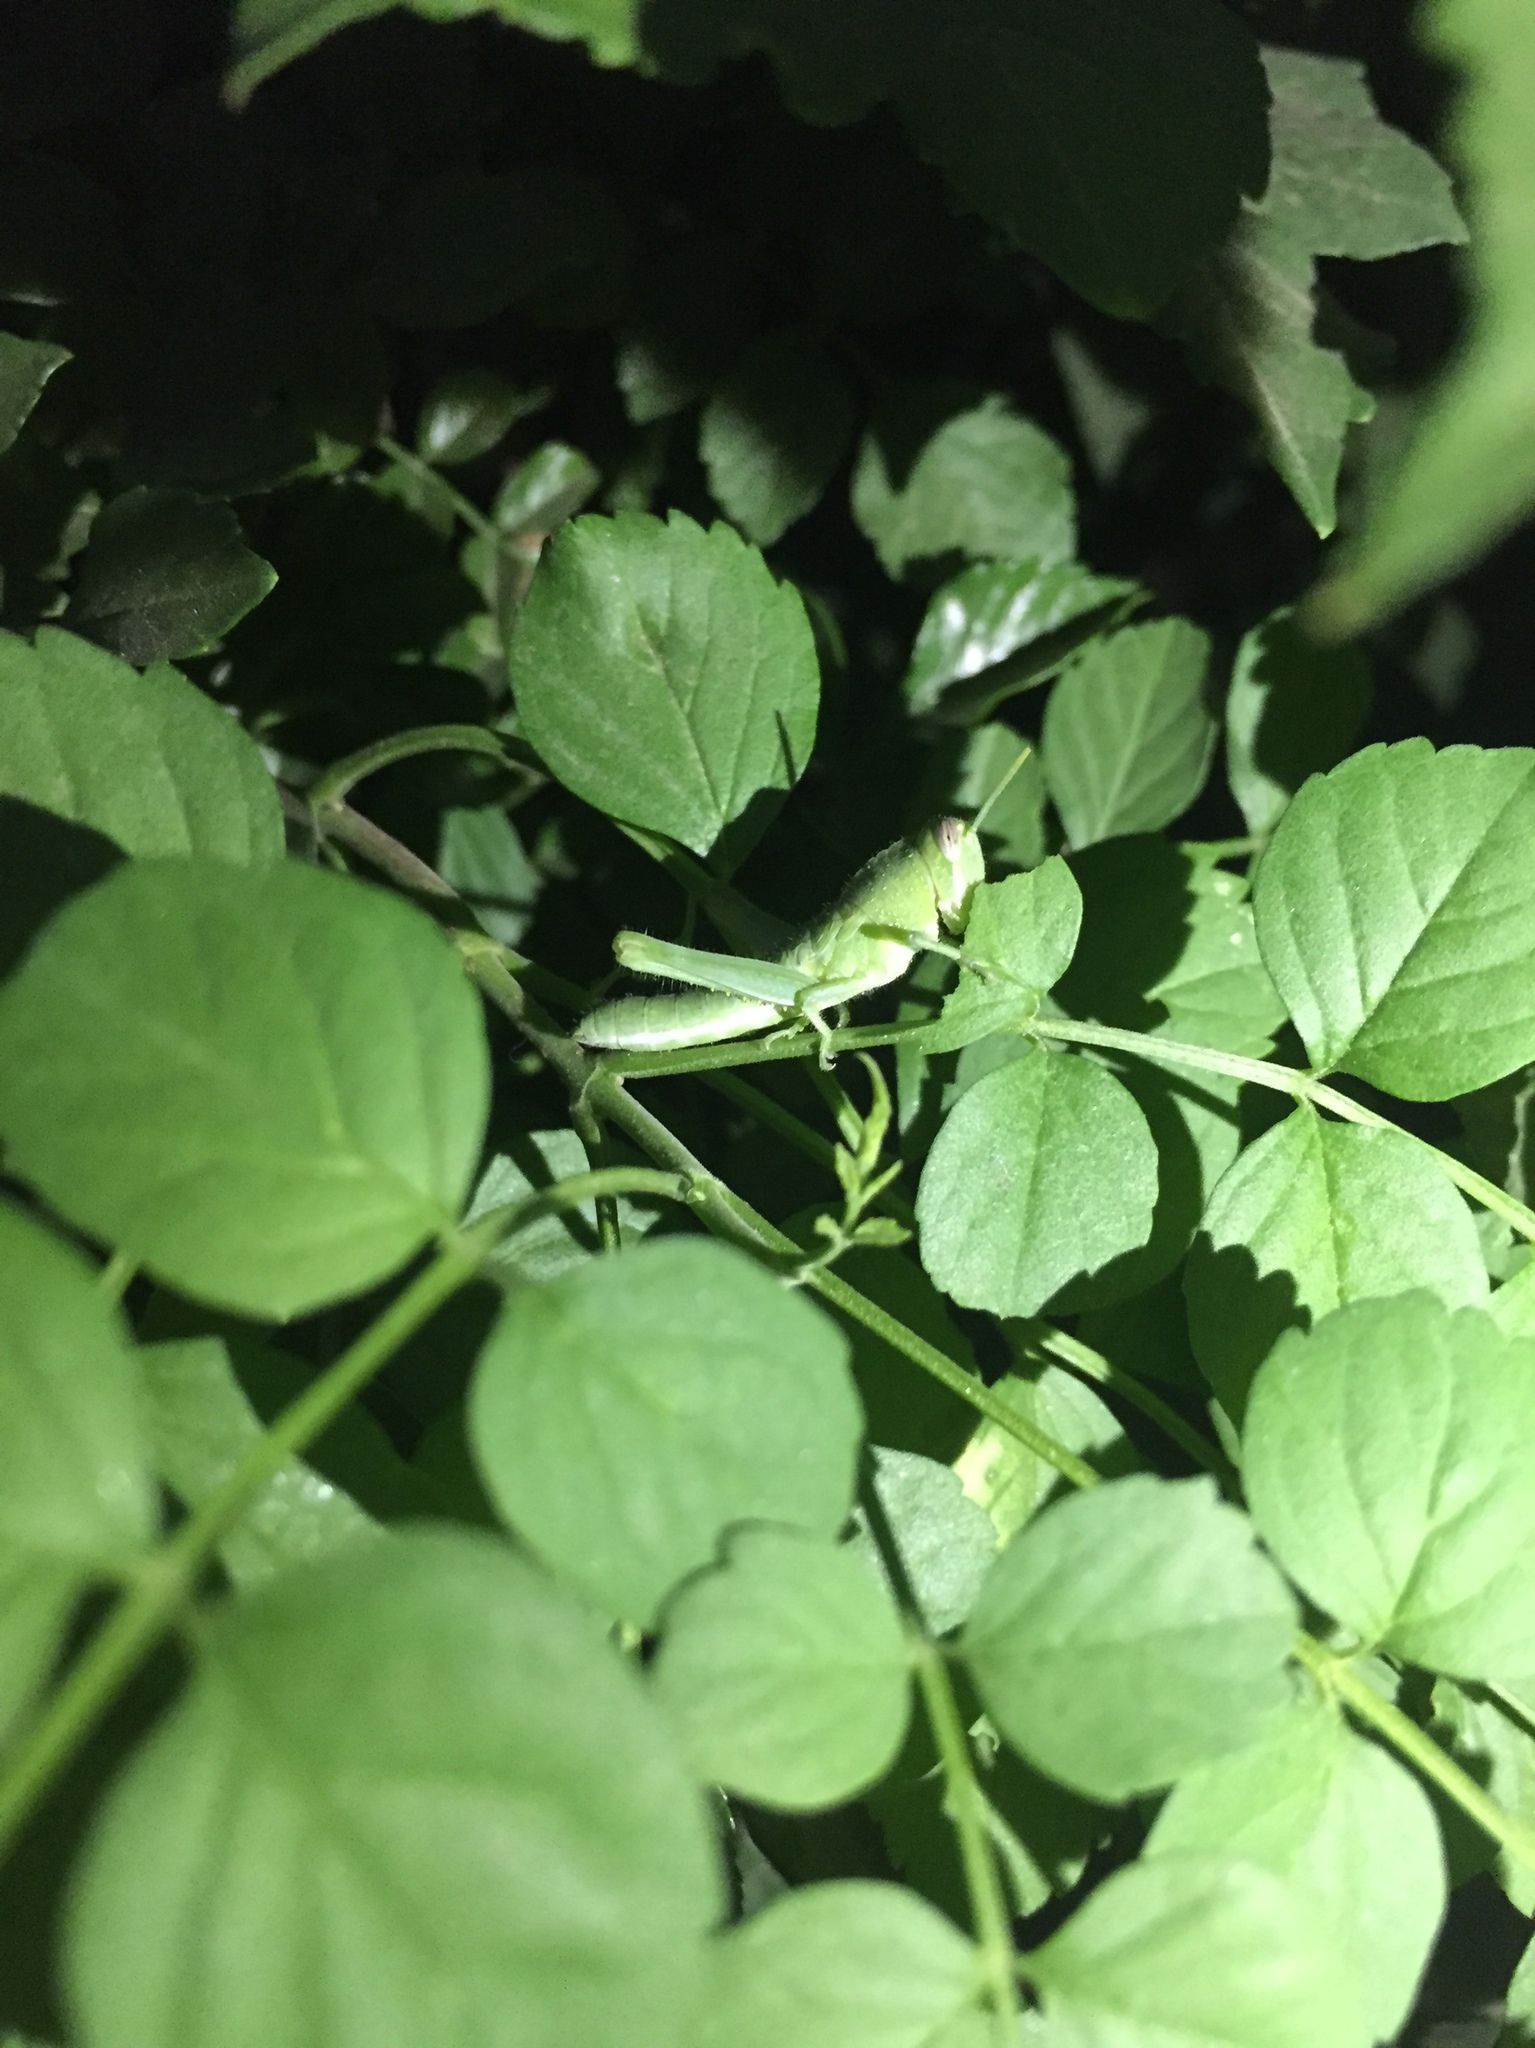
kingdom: Animalia
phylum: Arthropoda
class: Insecta
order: Orthoptera
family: Acrididae
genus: Schistocerca
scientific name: Schistocerca nitens
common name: Vagrant grasshopper
